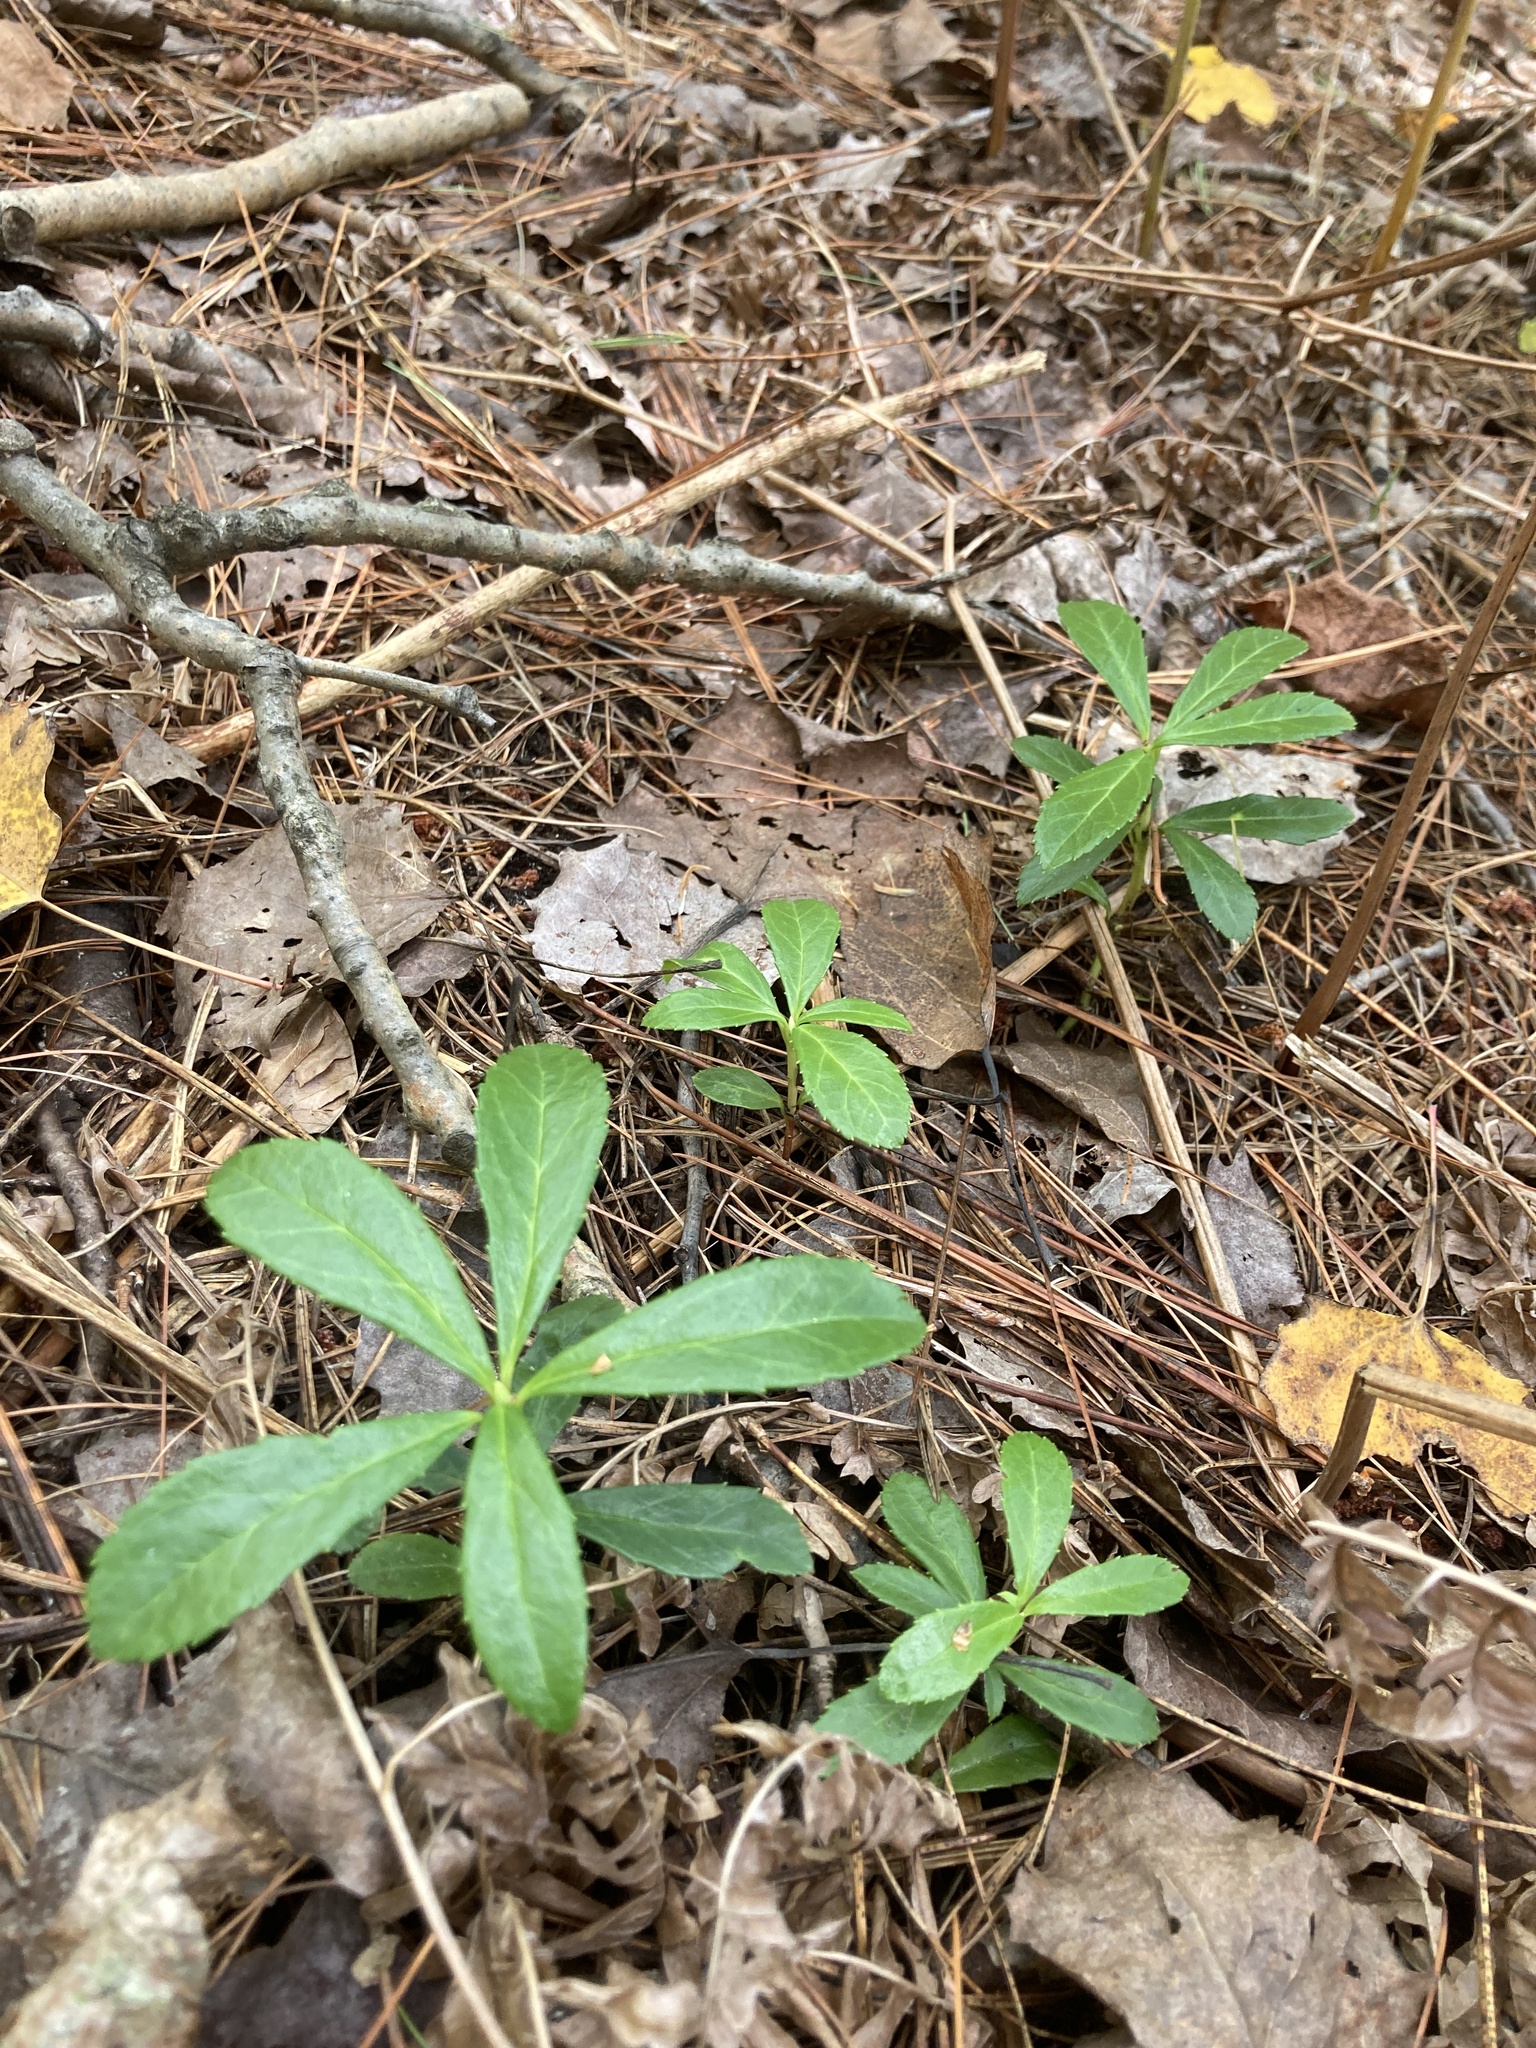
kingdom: Plantae
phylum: Tracheophyta
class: Magnoliopsida
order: Ericales
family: Ericaceae
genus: Chimaphila
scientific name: Chimaphila umbellata
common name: Pipsissewa
